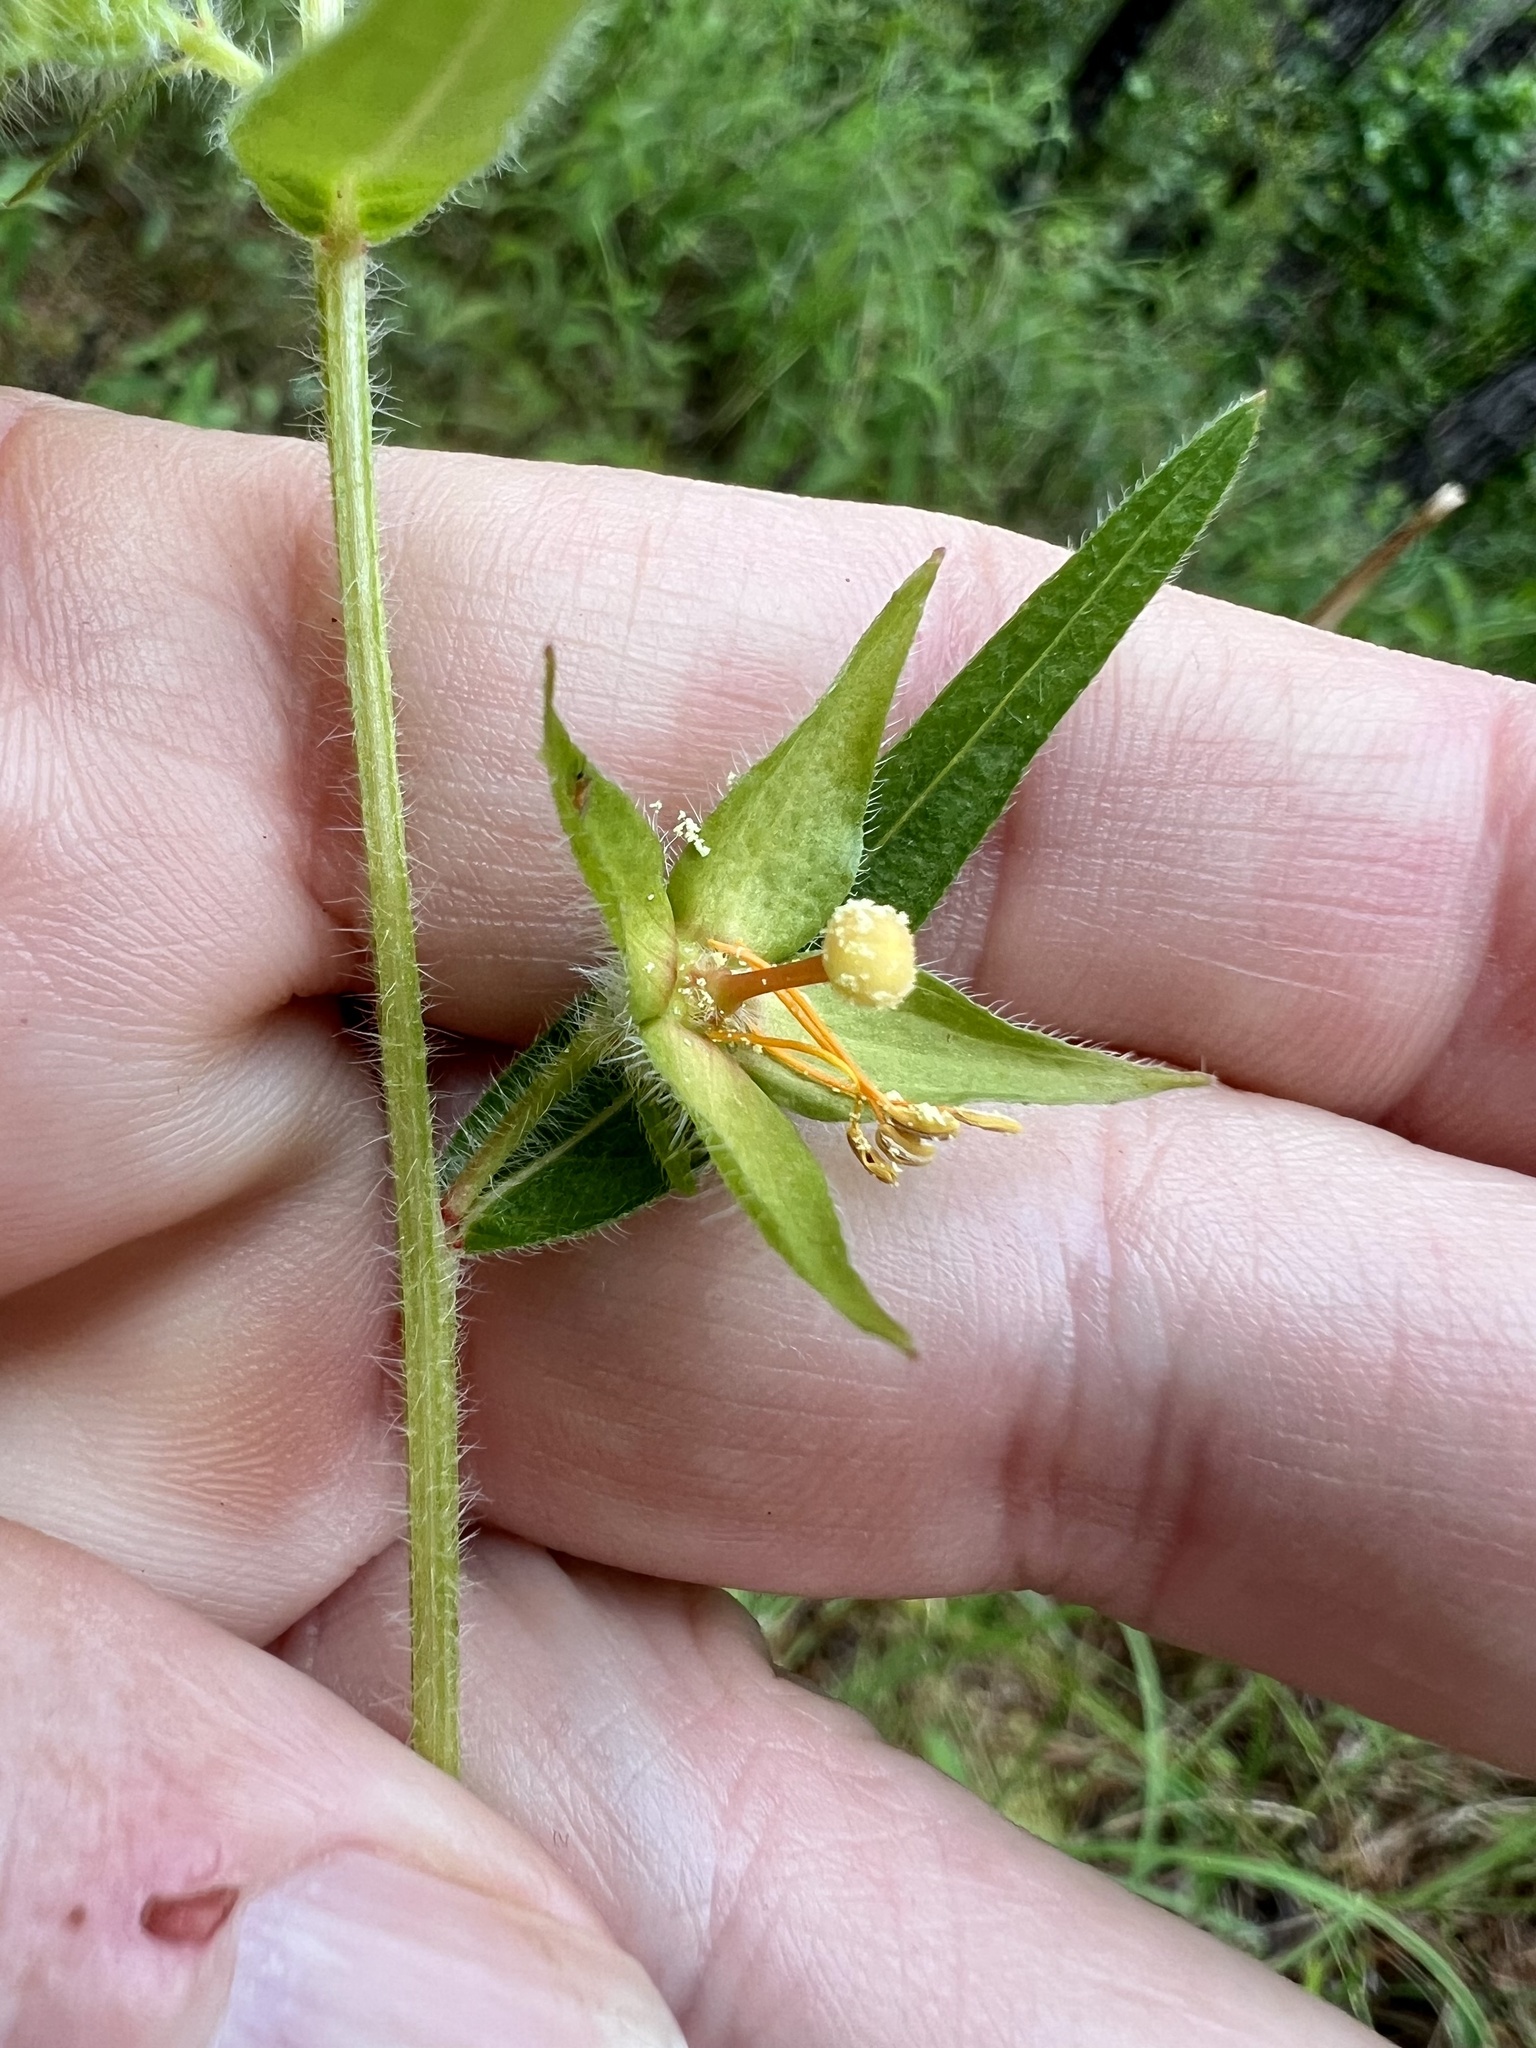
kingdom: Plantae
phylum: Tracheophyta
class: Magnoliopsida
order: Myrtales
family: Onagraceae
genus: Ludwigia
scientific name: Ludwigia hirtella
